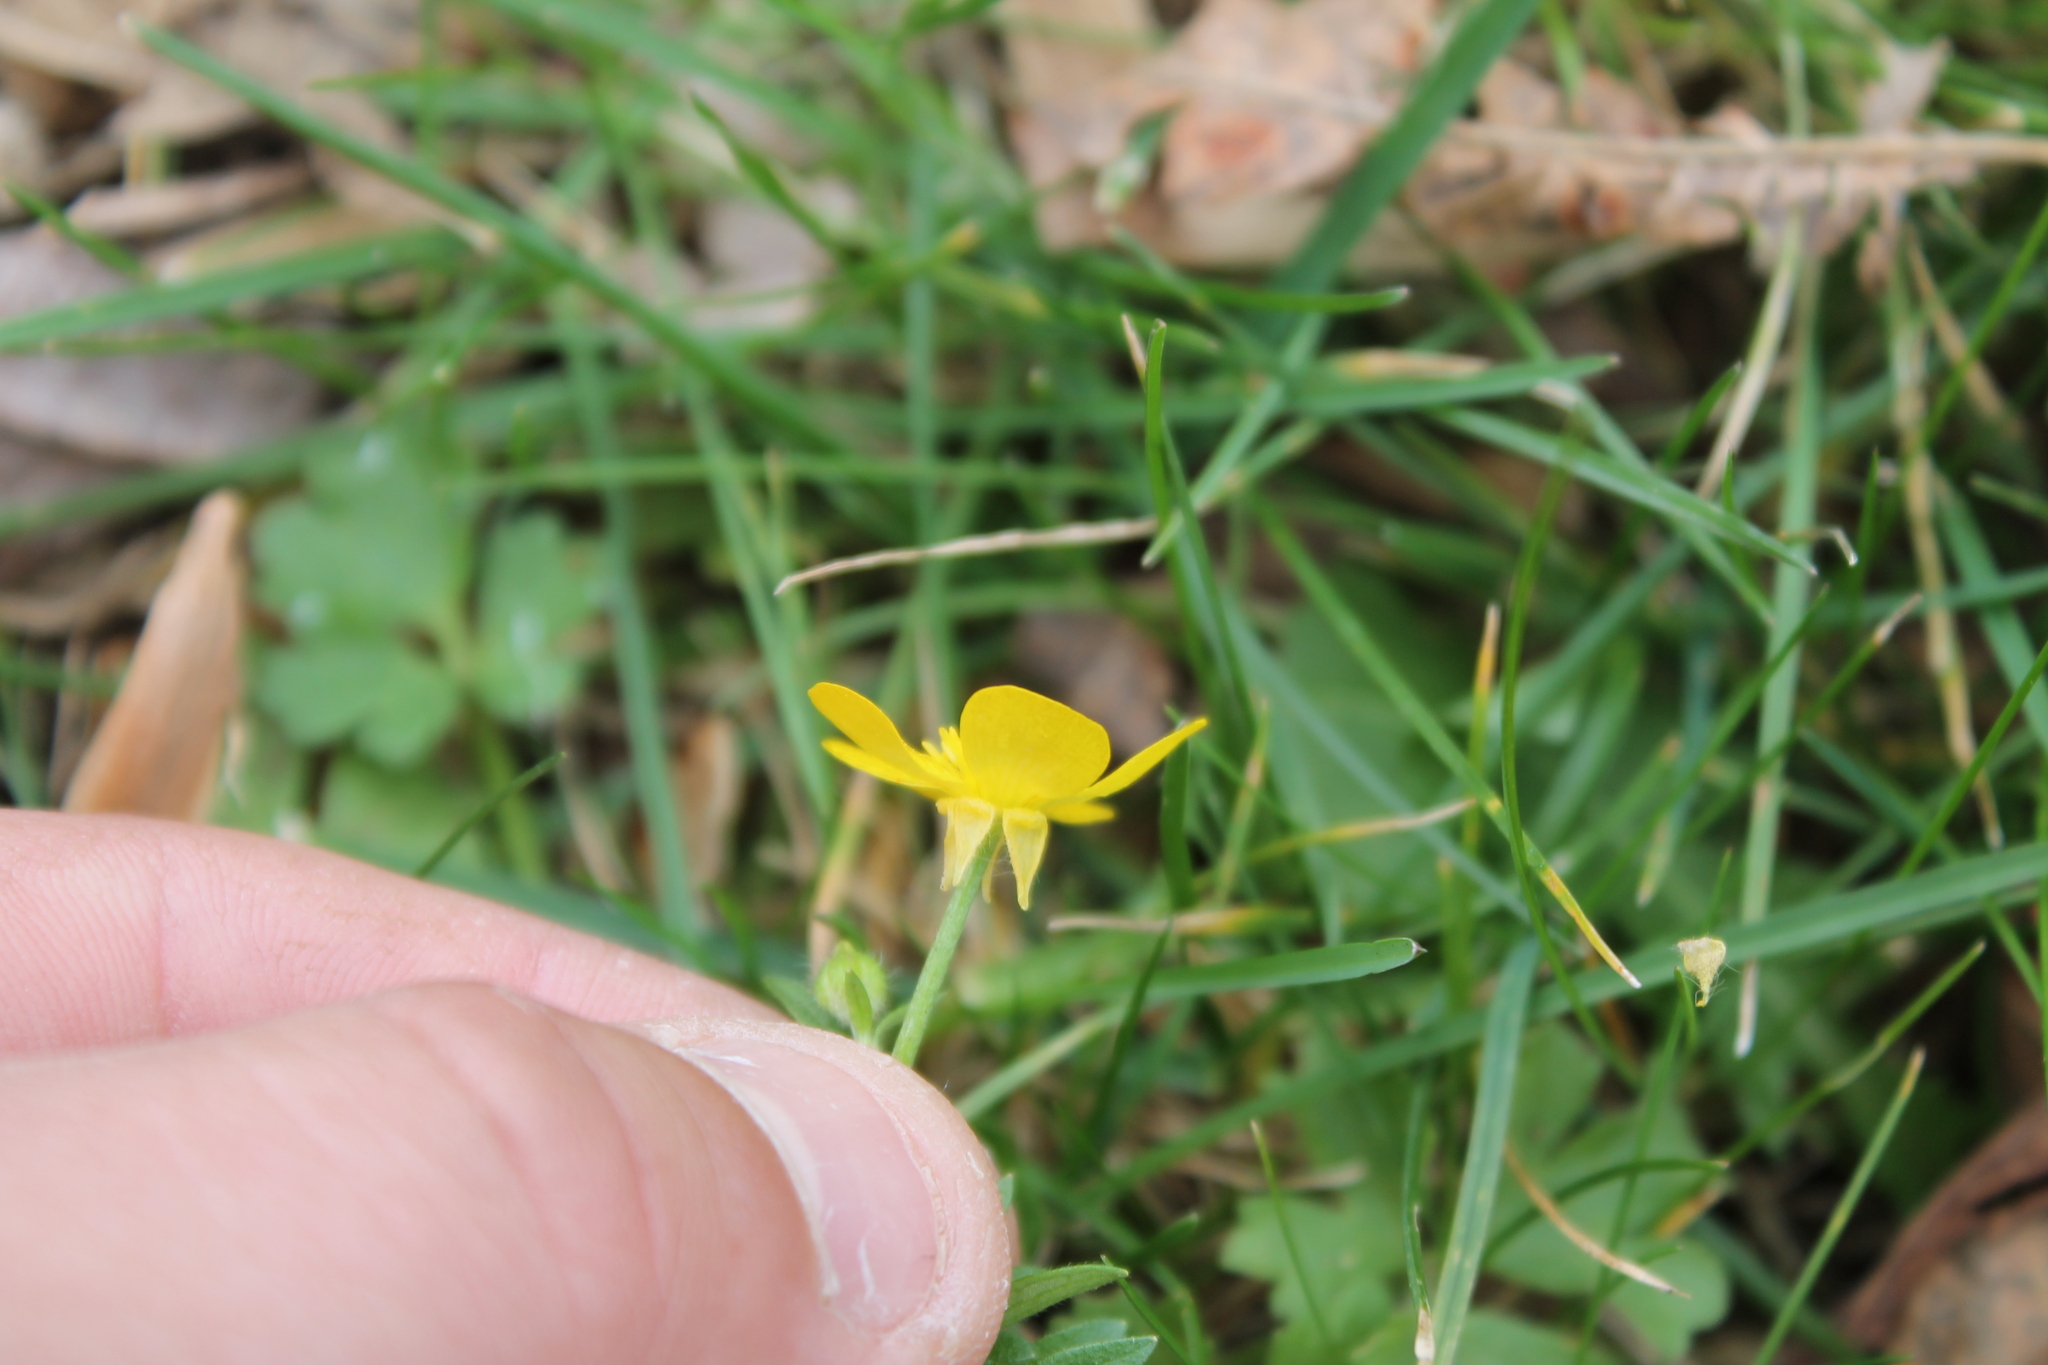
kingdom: Plantae
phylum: Tracheophyta
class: Magnoliopsida
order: Ranunculales
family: Ranunculaceae
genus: Ranunculus
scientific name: Ranunculus sardous
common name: Hairy buttercup
